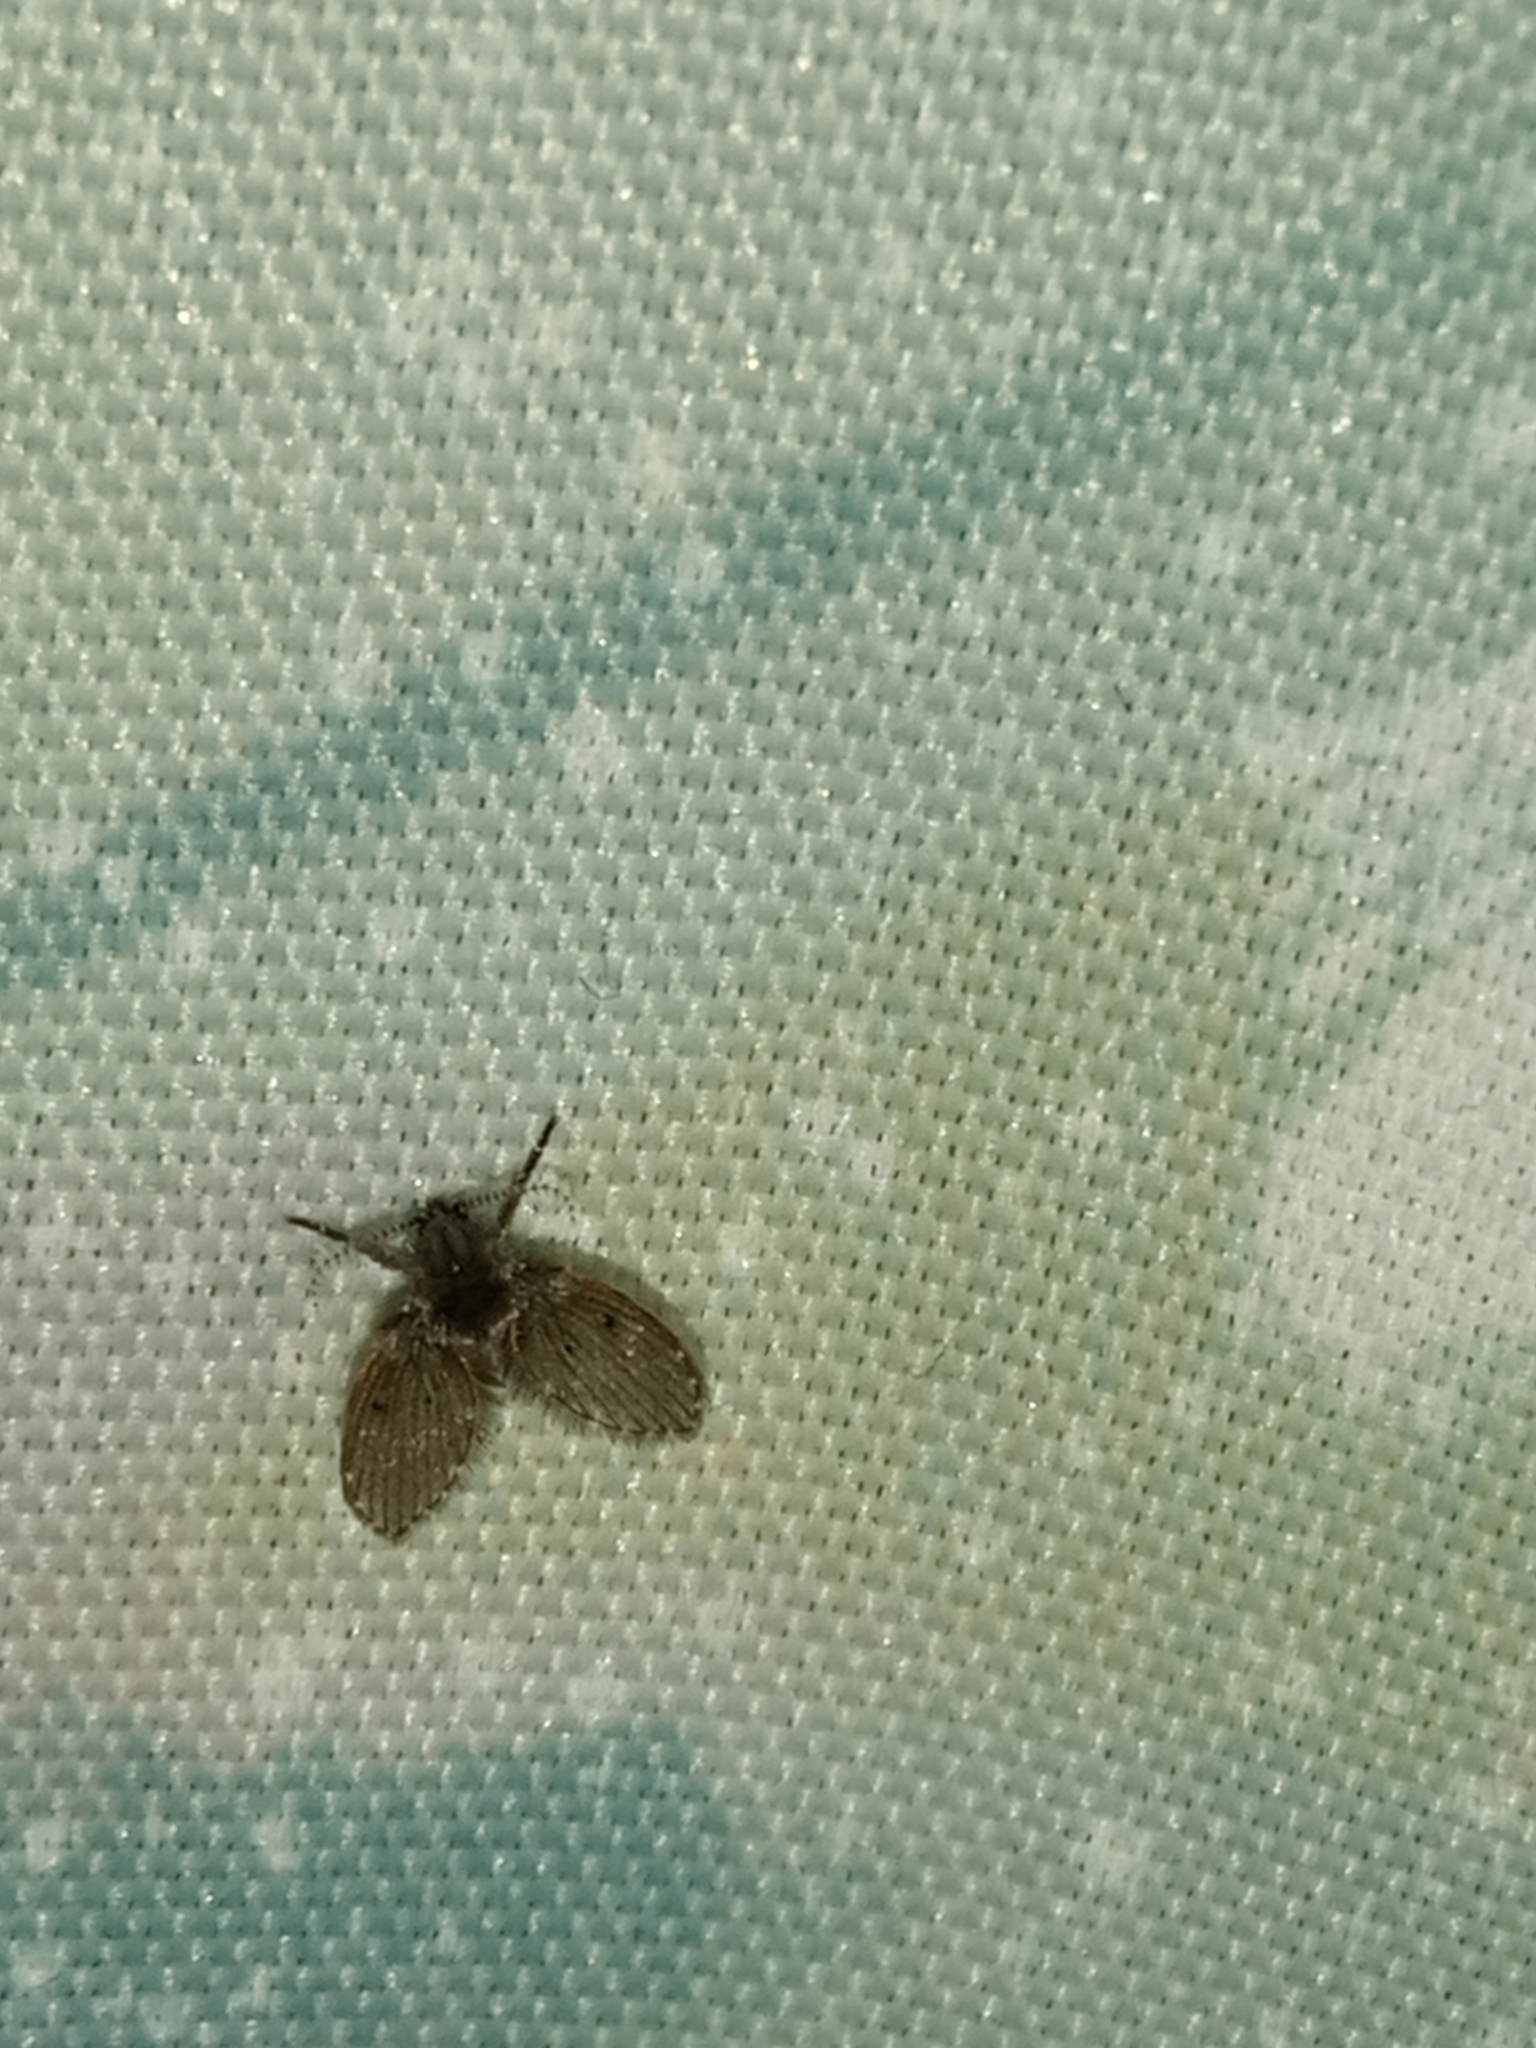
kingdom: Animalia
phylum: Arthropoda
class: Insecta
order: Diptera
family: Psychodidae
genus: Clogmia
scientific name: Clogmia albipunctatus
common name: White-spotted moth fly
